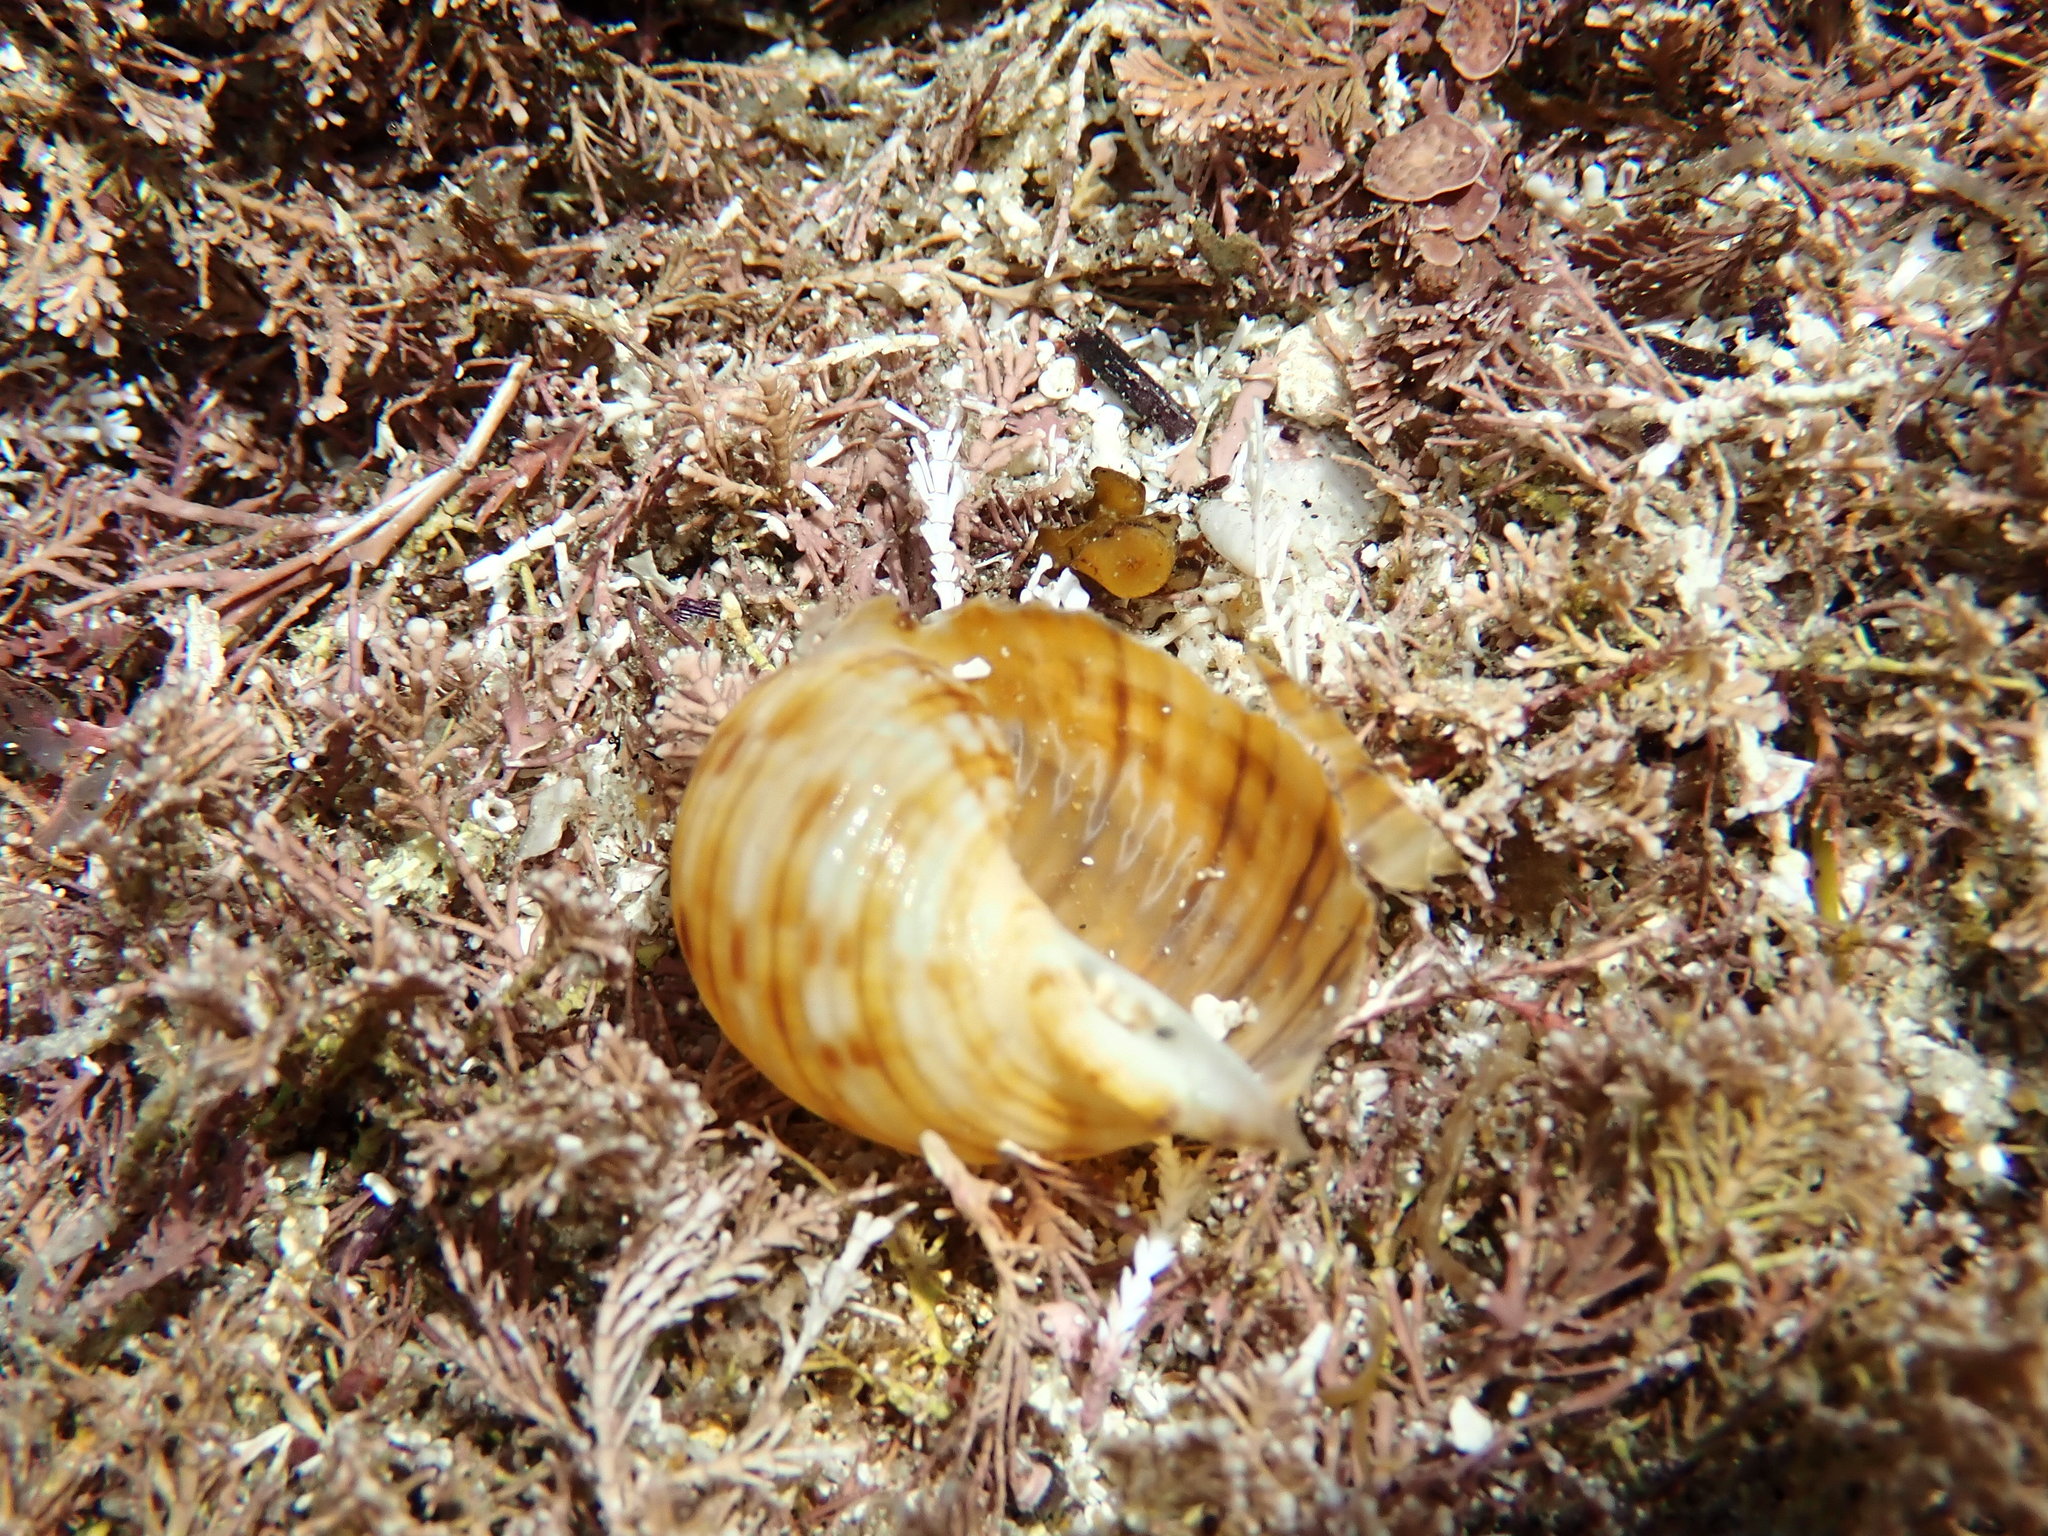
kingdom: Animalia
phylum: Mollusca
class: Gastropoda
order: Littorinimorpha
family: Tonnidae
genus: Tonna
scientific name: Tonna tankervillii
